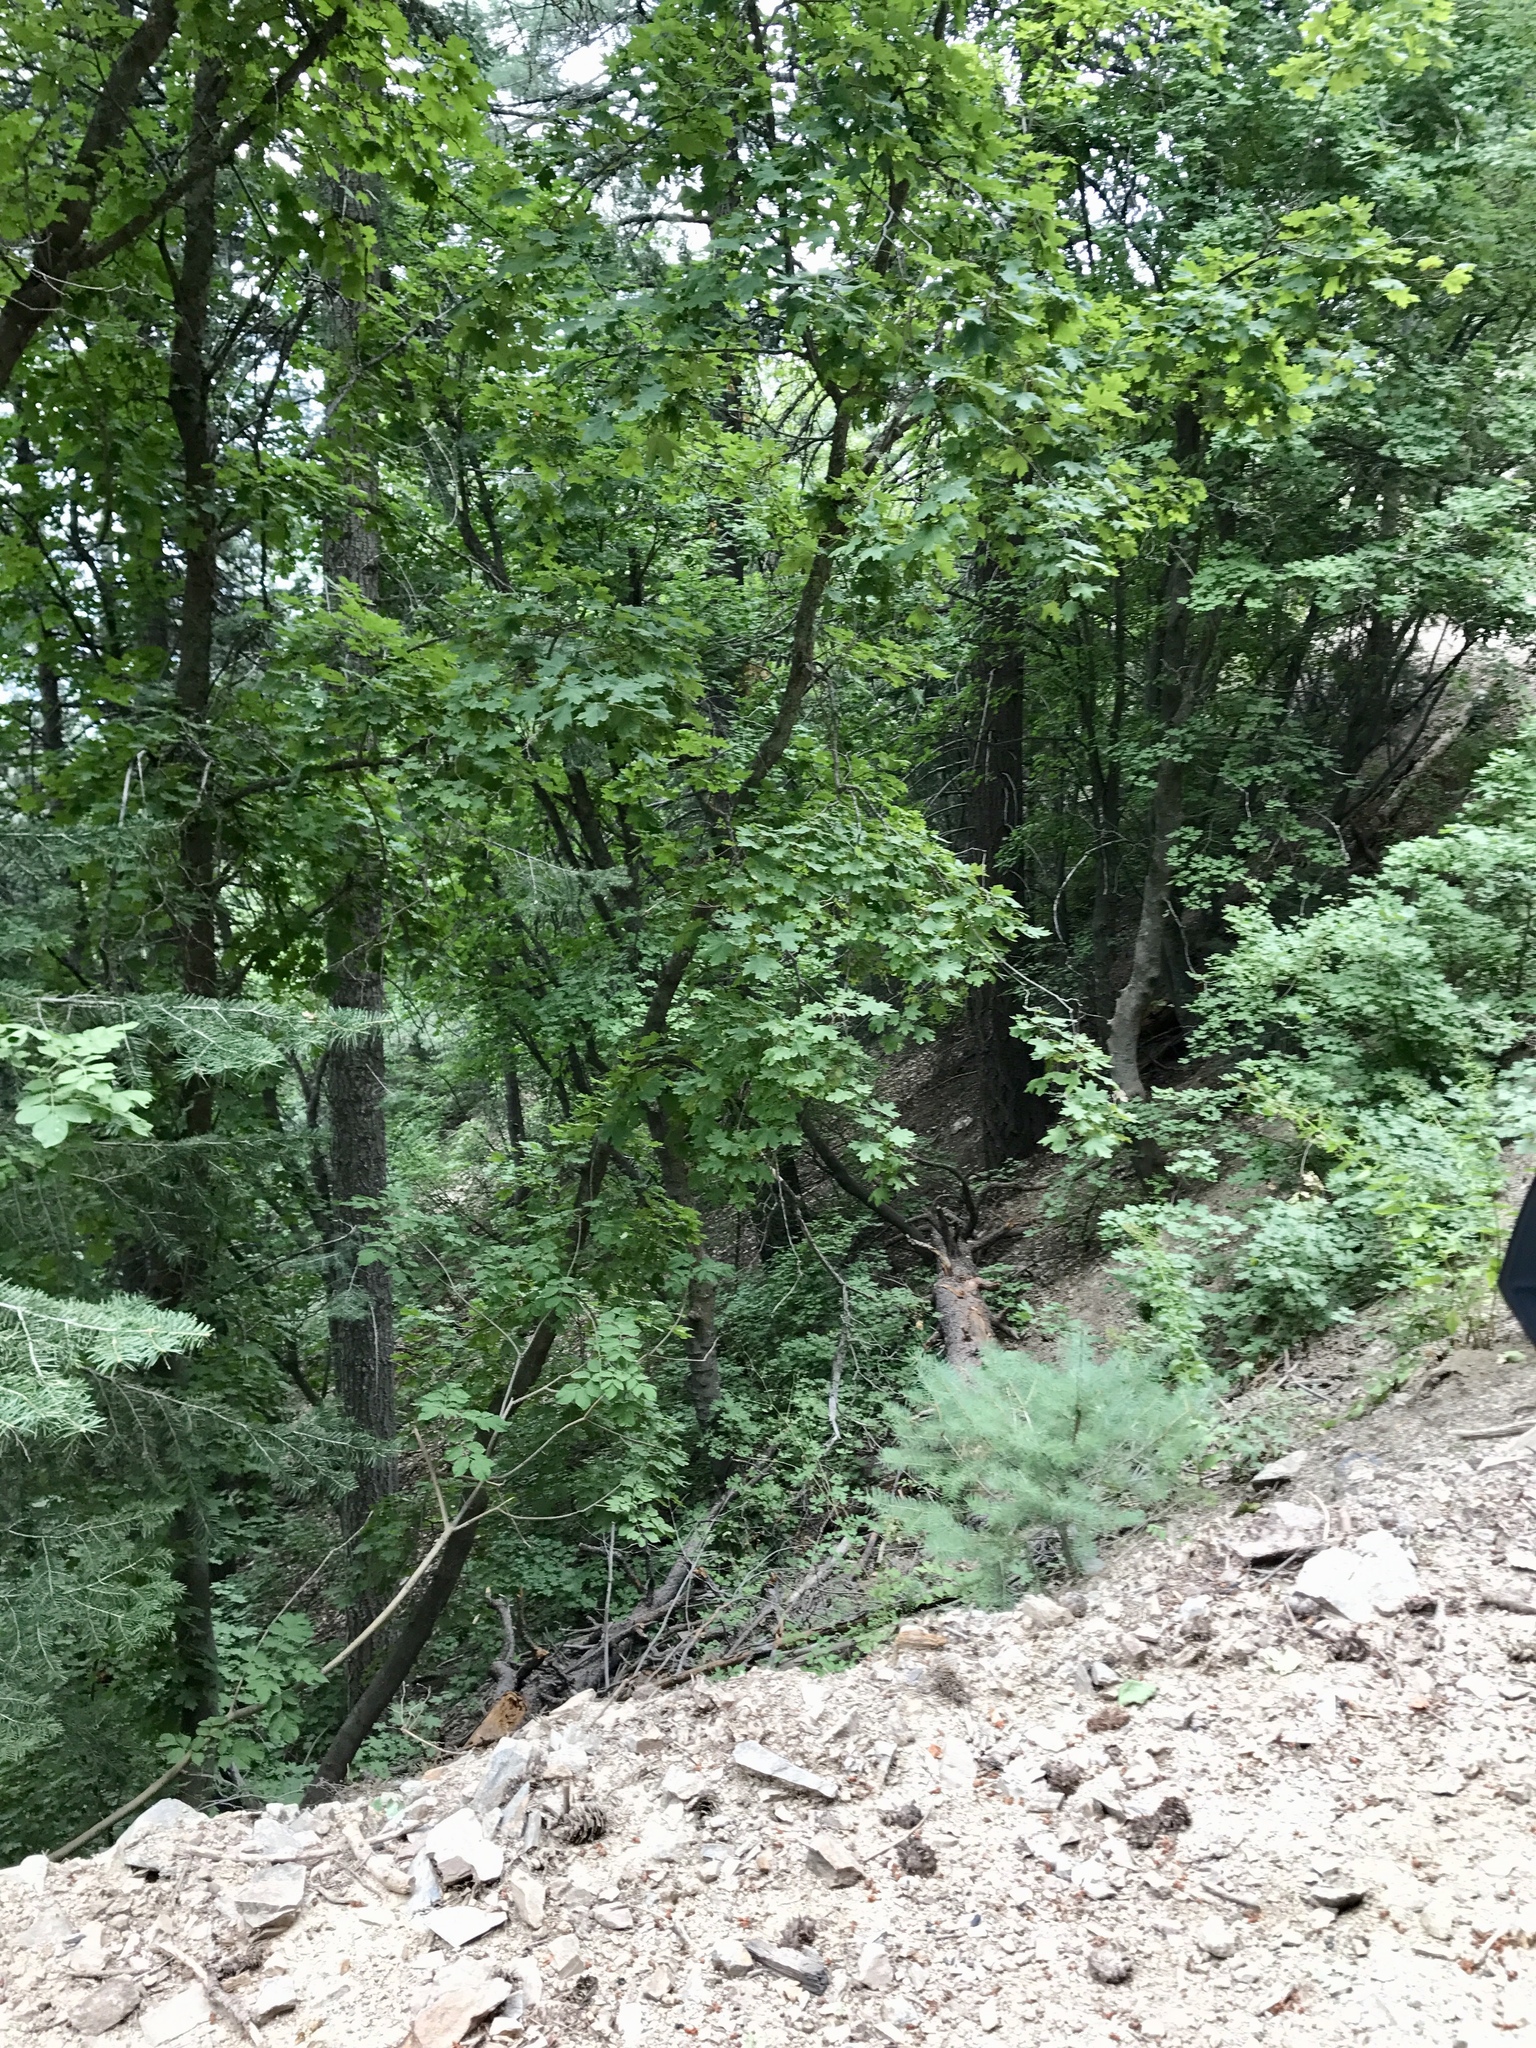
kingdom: Plantae
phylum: Tracheophyta
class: Magnoliopsida
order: Sapindales
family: Sapindaceae
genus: Acer
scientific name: Acer grandidentatum
